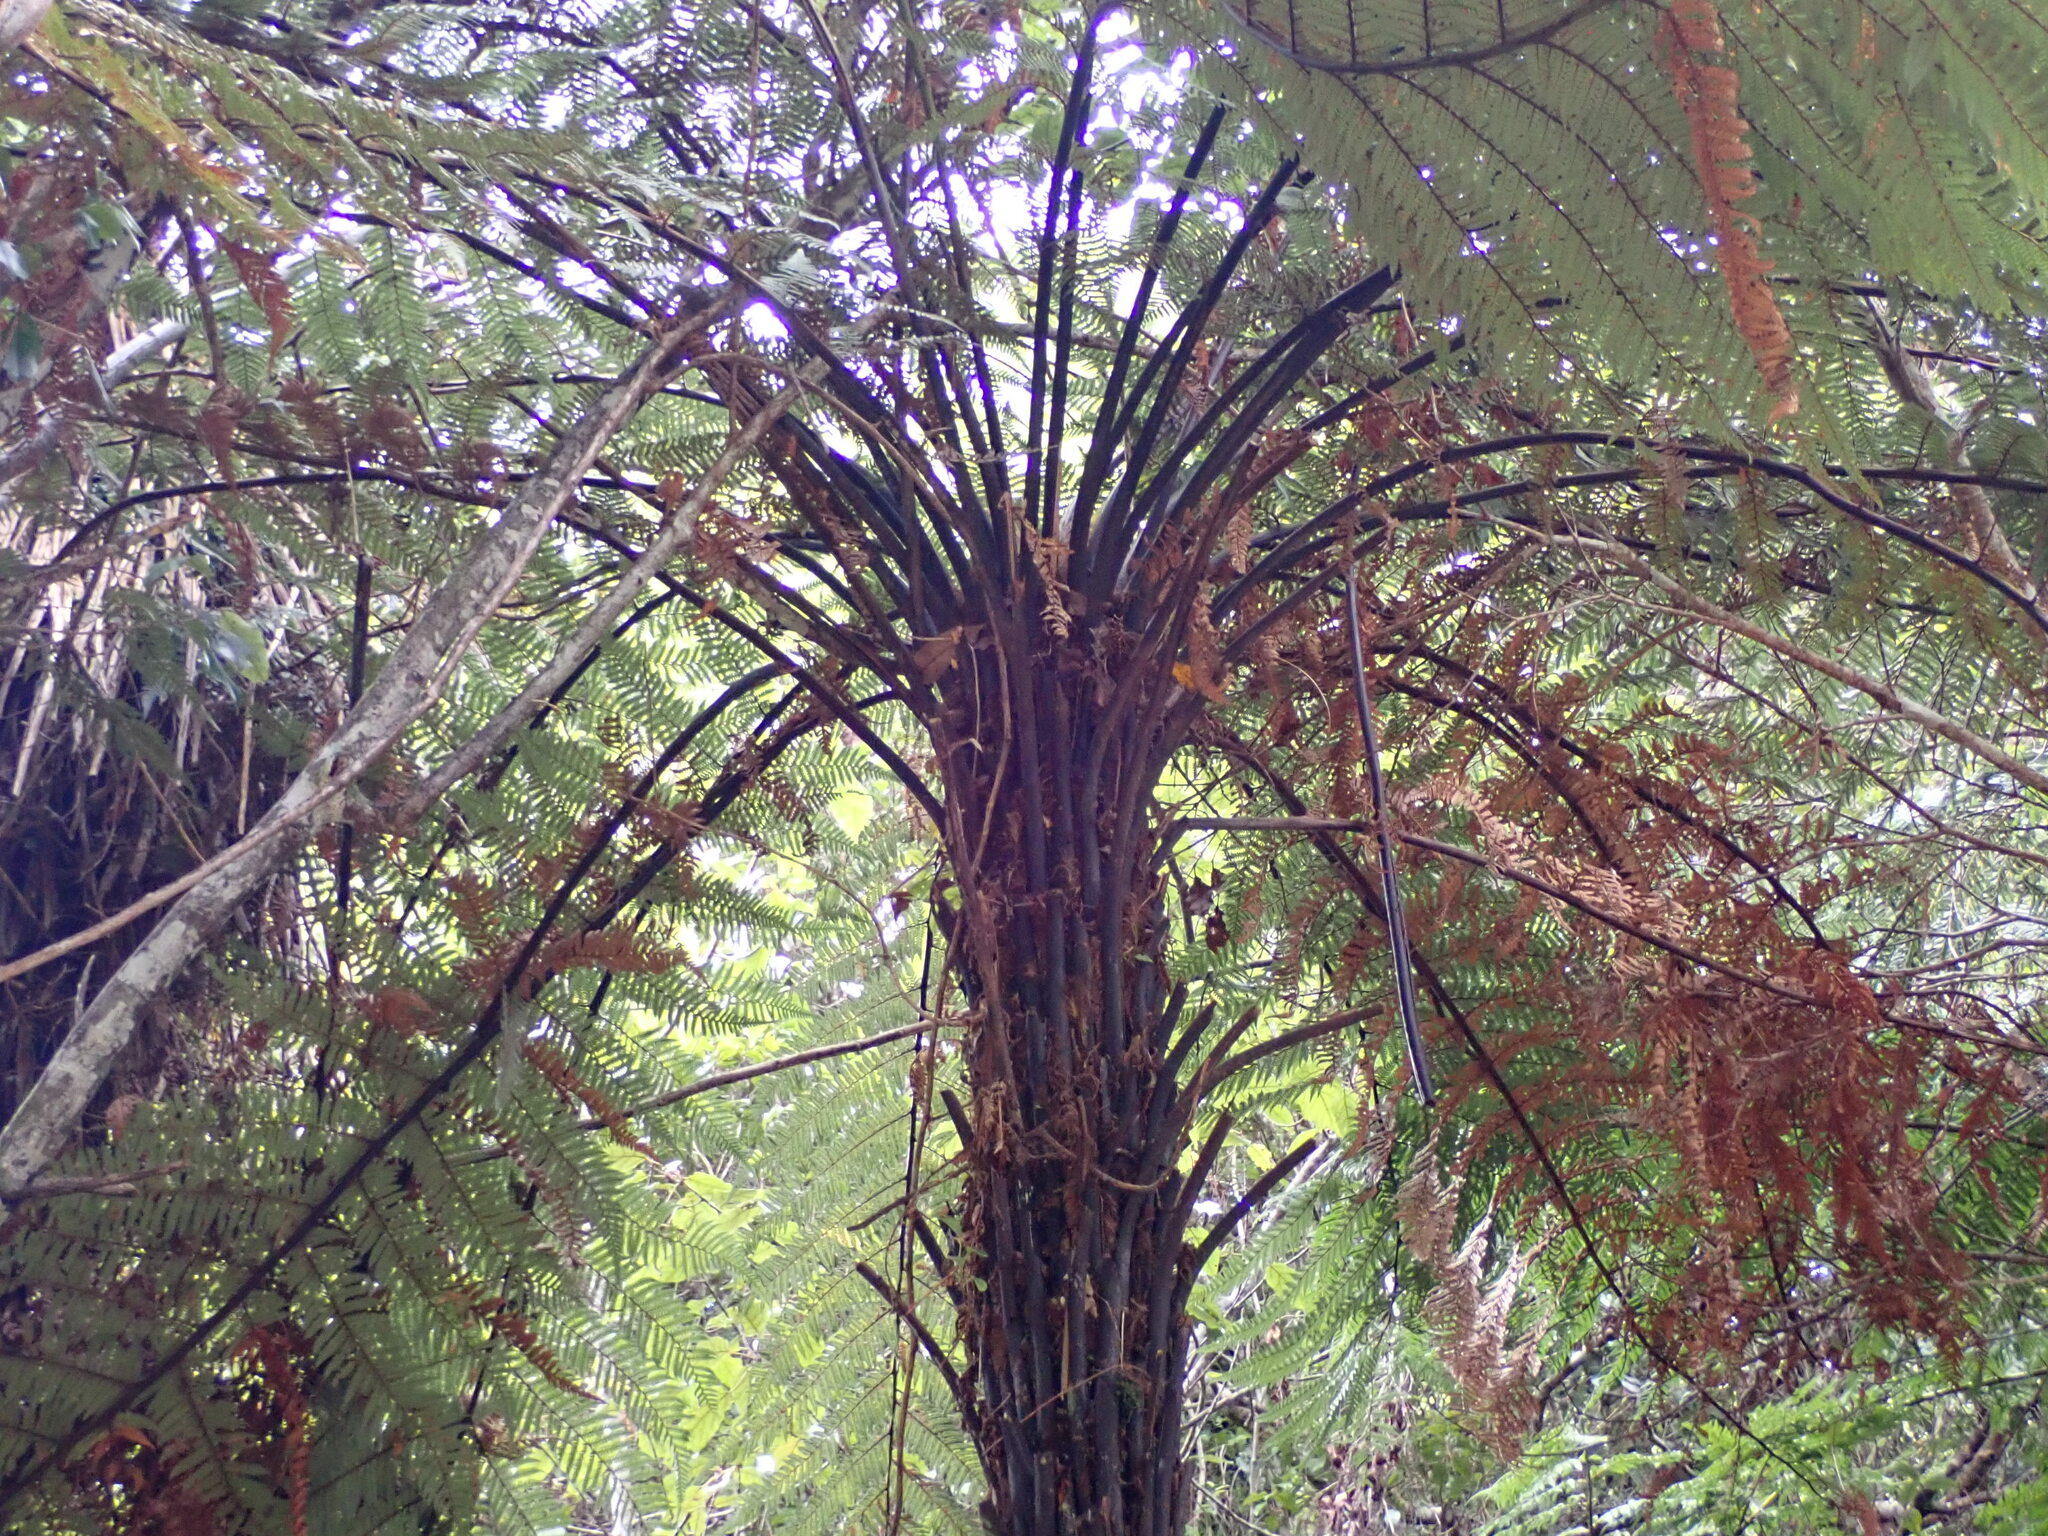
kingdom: Plantae
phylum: Tracheophyta
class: Polypodiopsida
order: Cyatheales
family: Dicksoniaceae
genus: Dicksonia
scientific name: Dicksonia squarrosa
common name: Hard treefern
